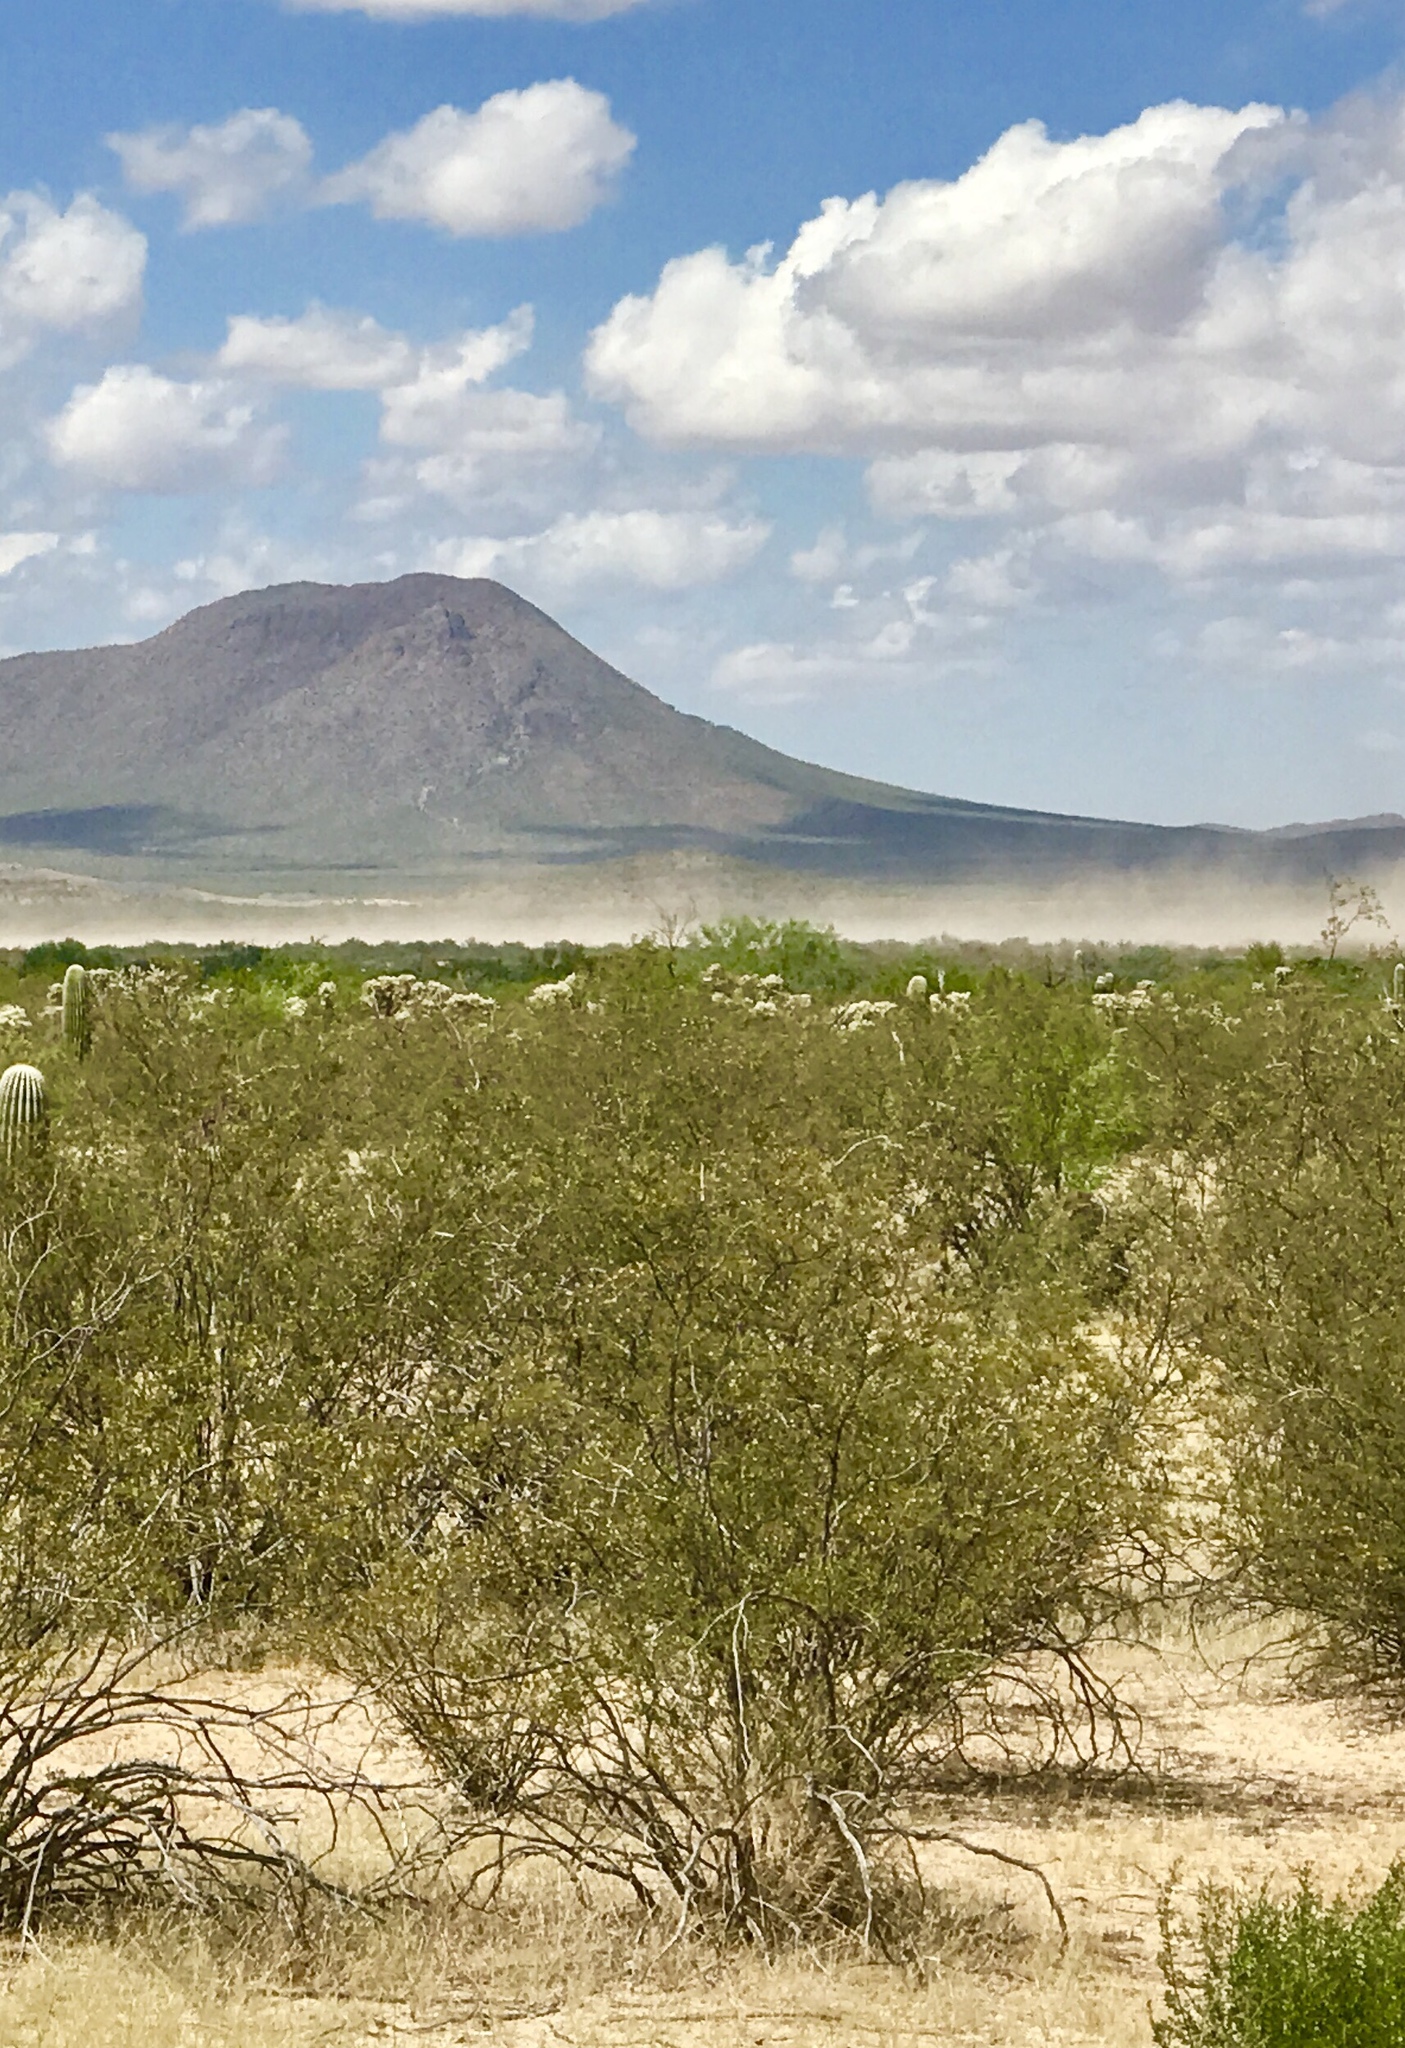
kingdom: Plantae
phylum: Tracheophyta
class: Magnoliopsida
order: Zygophyllales
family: Zygophyllaceae
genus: Larrea
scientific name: Larrea tridentata
